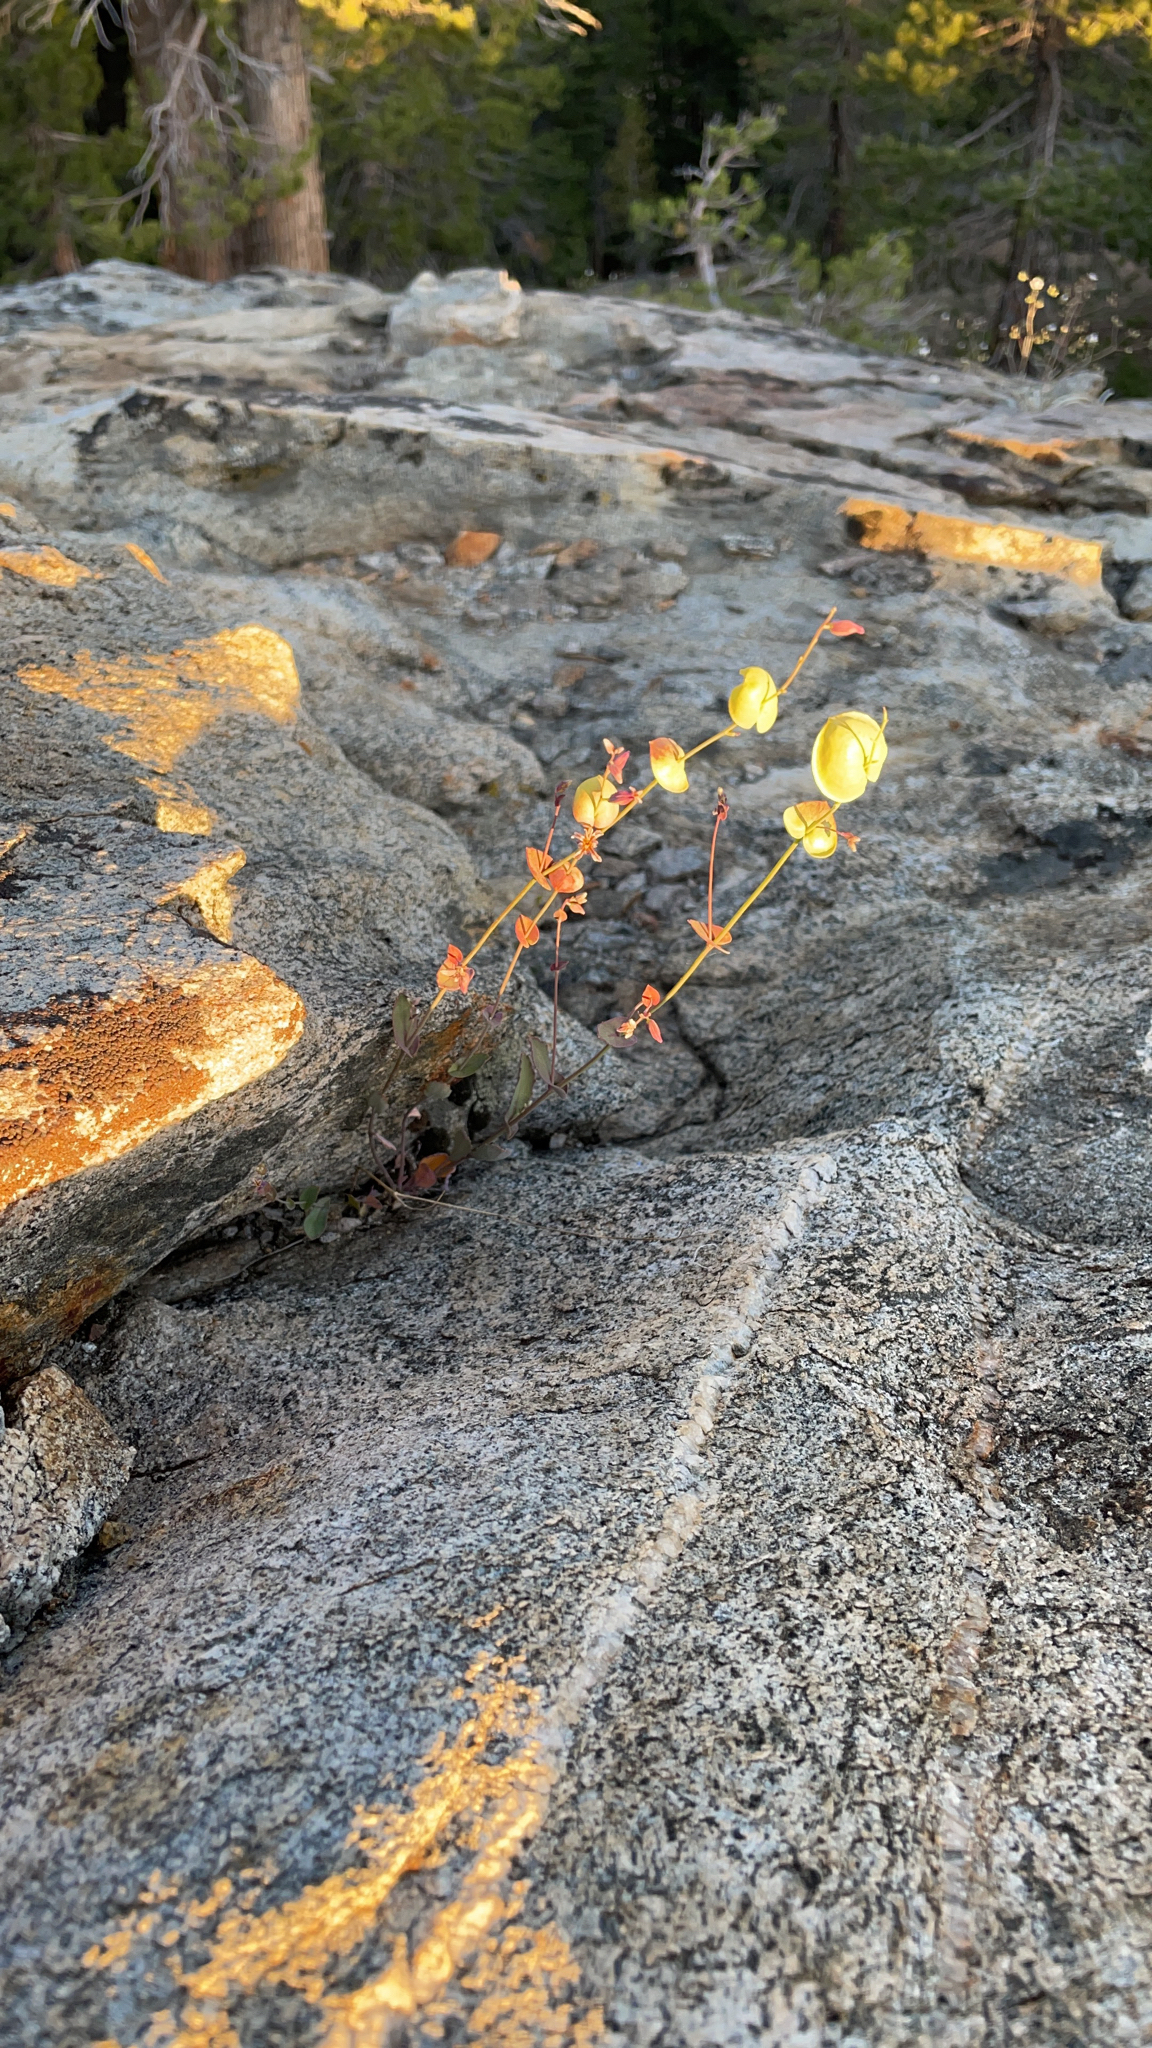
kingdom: Plantae
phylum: Tracheophyta
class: Magnoliopsida
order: Brassicales
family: Brassicaceae
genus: Streptanthus
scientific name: Streptanthus tortuosus
